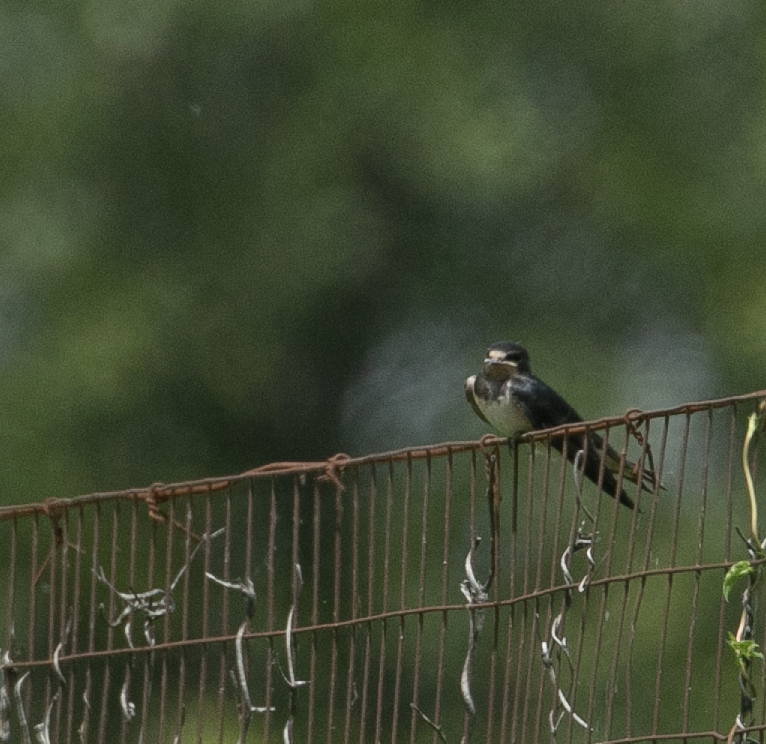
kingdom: Animalia
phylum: Chordata
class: Aves
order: Passeriformes
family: Hirundinidae
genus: Hirundo
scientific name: Hirundo rustica
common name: Barn swallow
